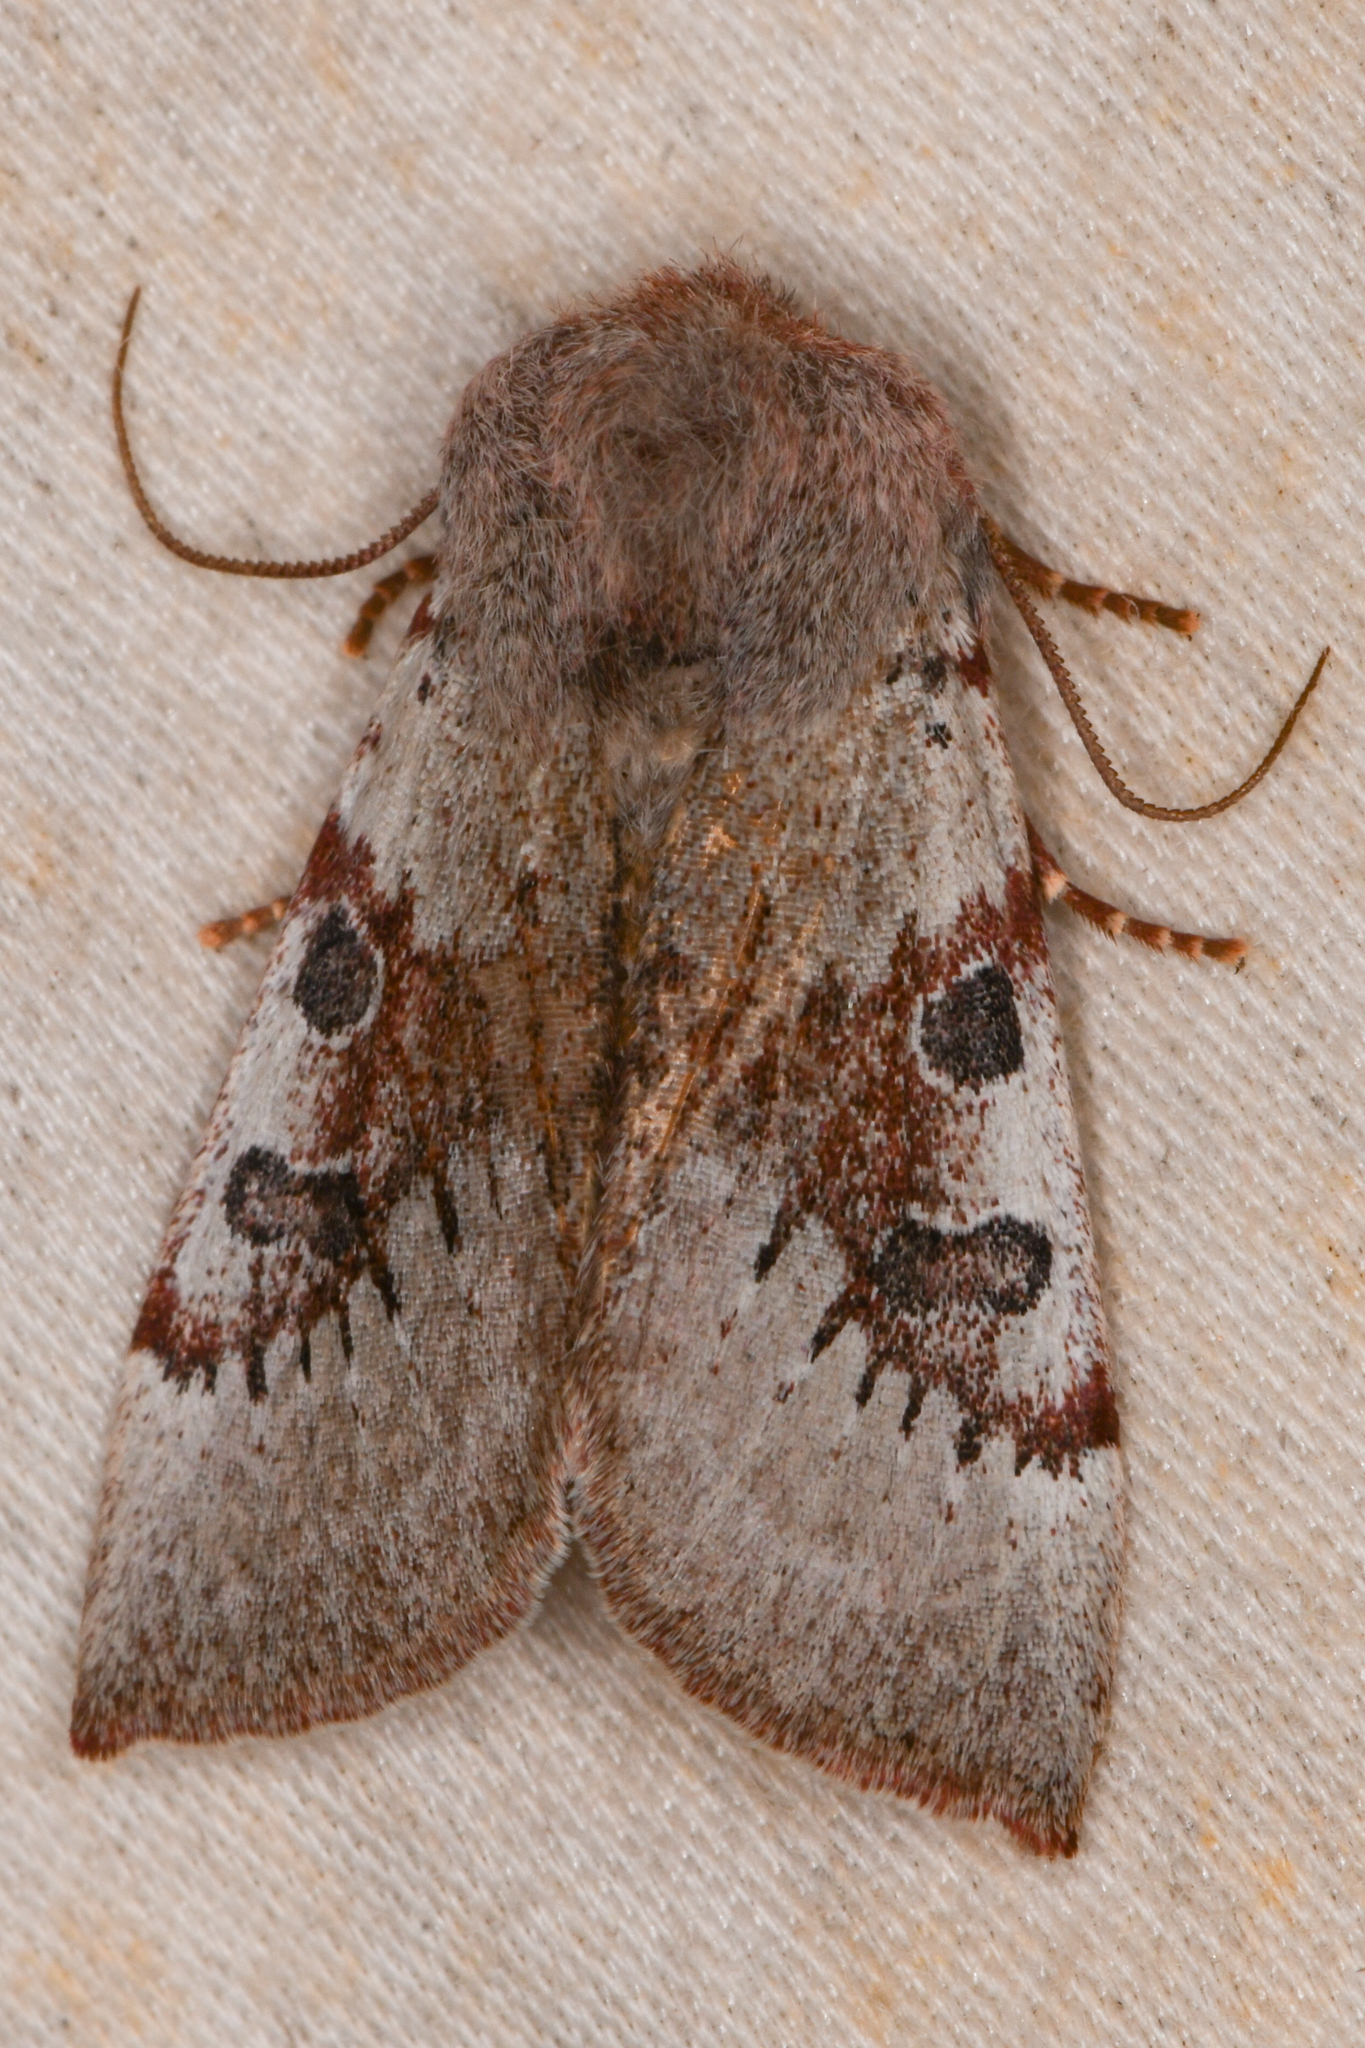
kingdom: Animalia
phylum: Arthropoda
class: Insecta
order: Lepidoptera
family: Noctuidae
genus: Orthosia
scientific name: Orthosia pulchella
